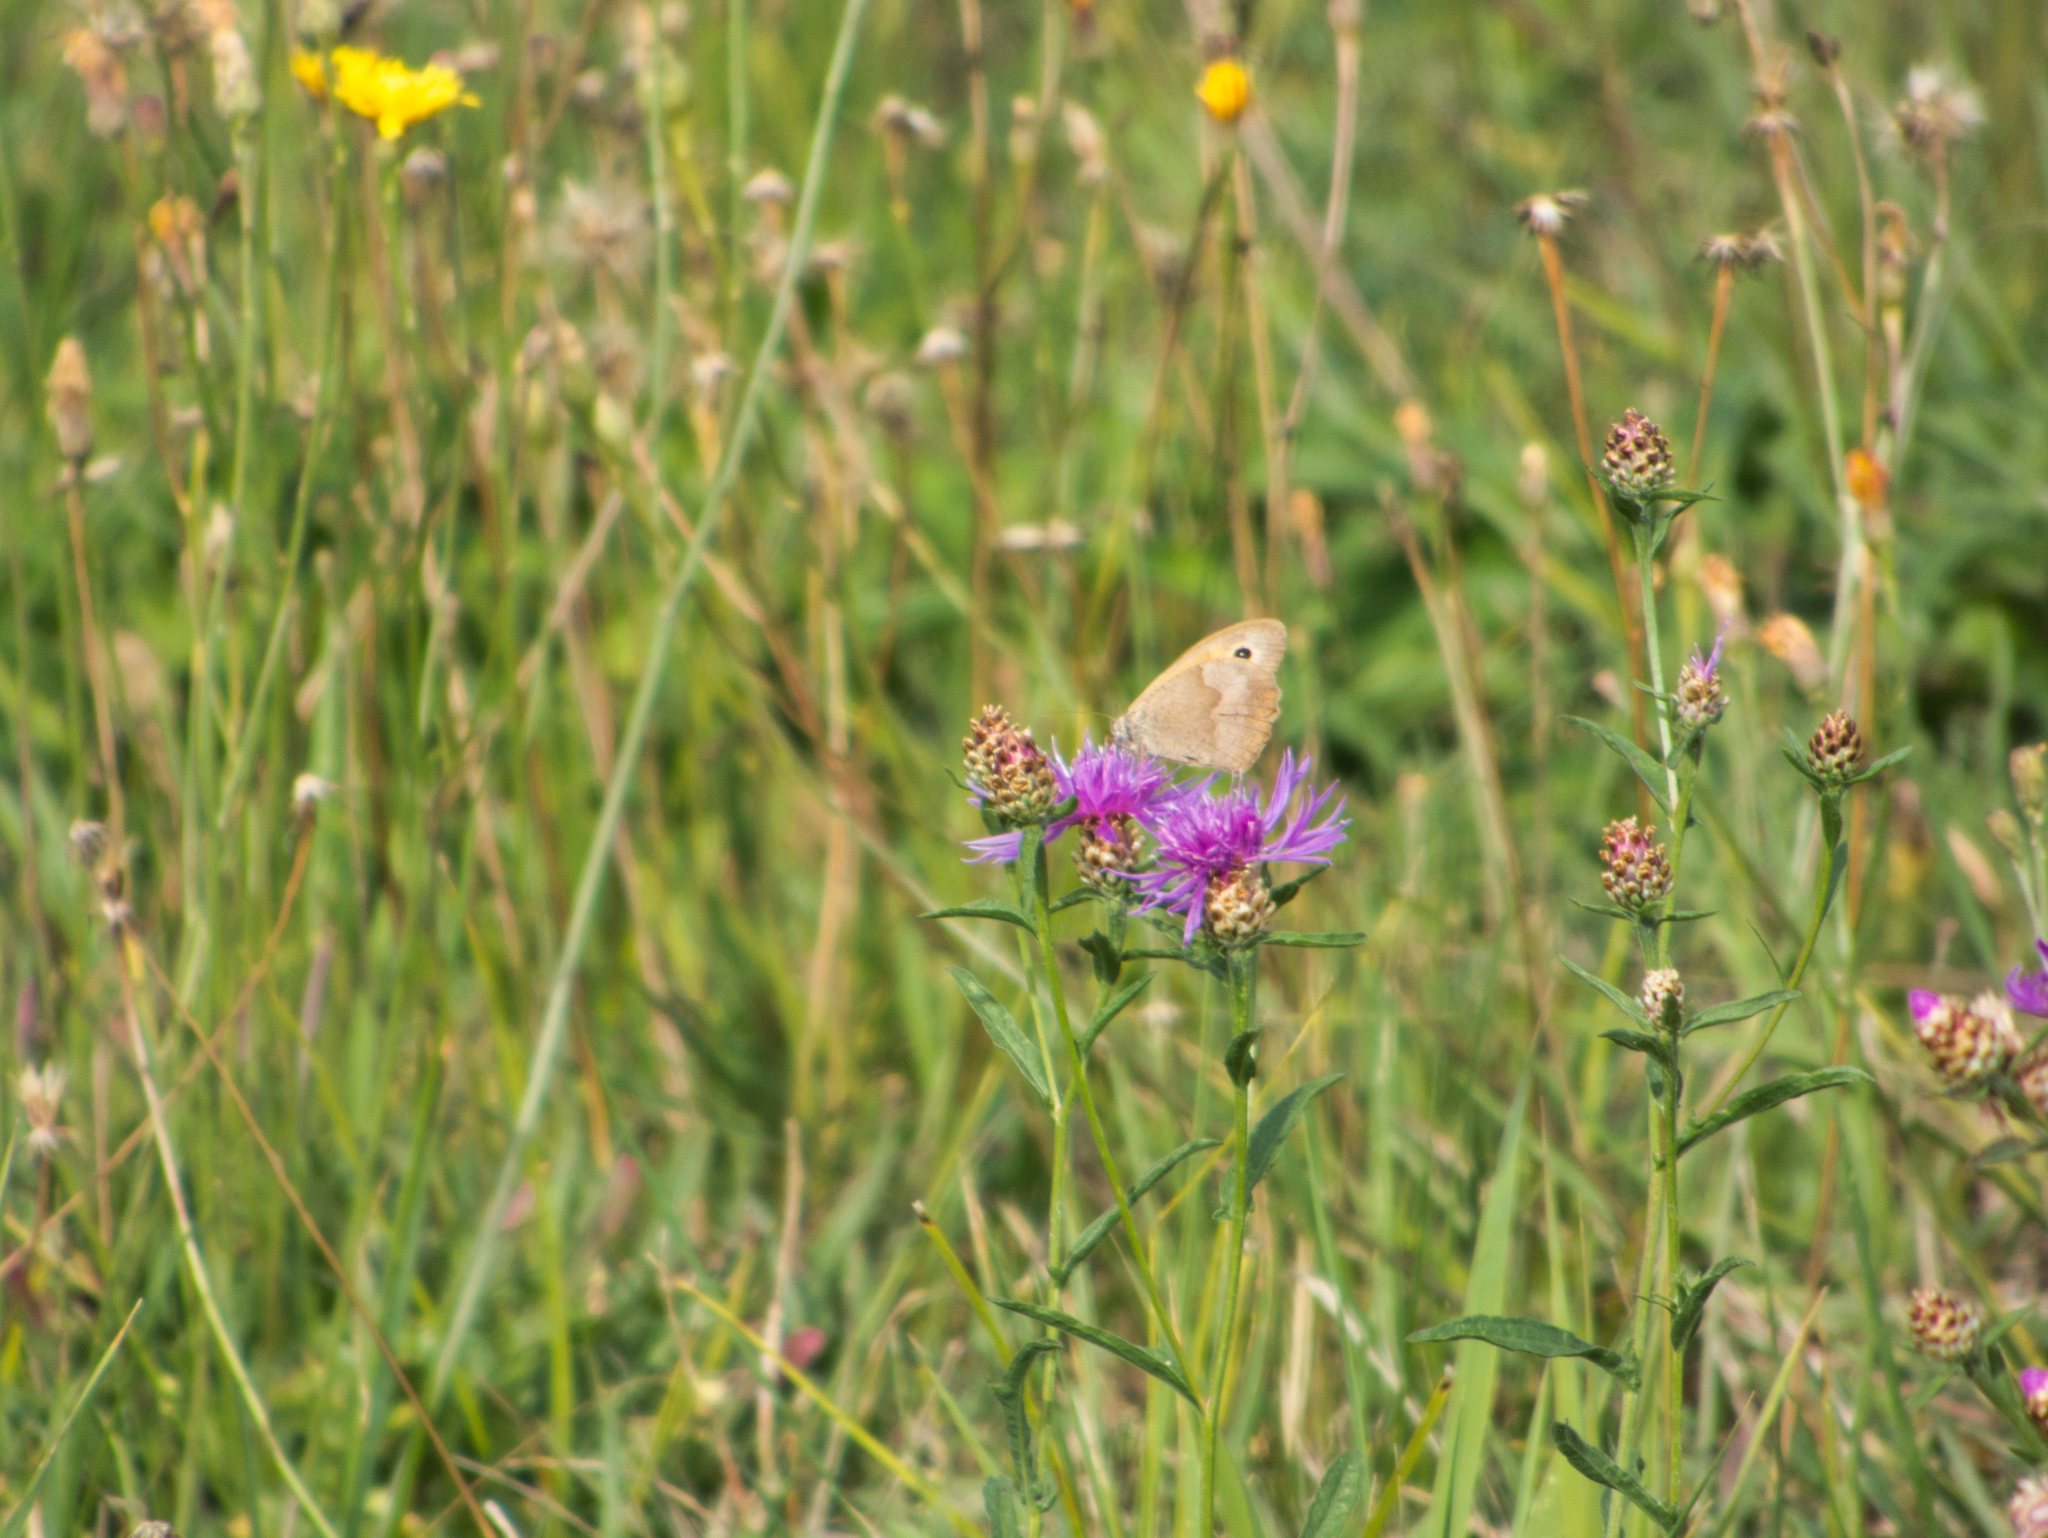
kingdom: Animalia
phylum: Arthropoda
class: Insecta
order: Lepidoptera
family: Nymphalidae
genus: Maniola
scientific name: Maniola jurtina
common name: Meadow brown
